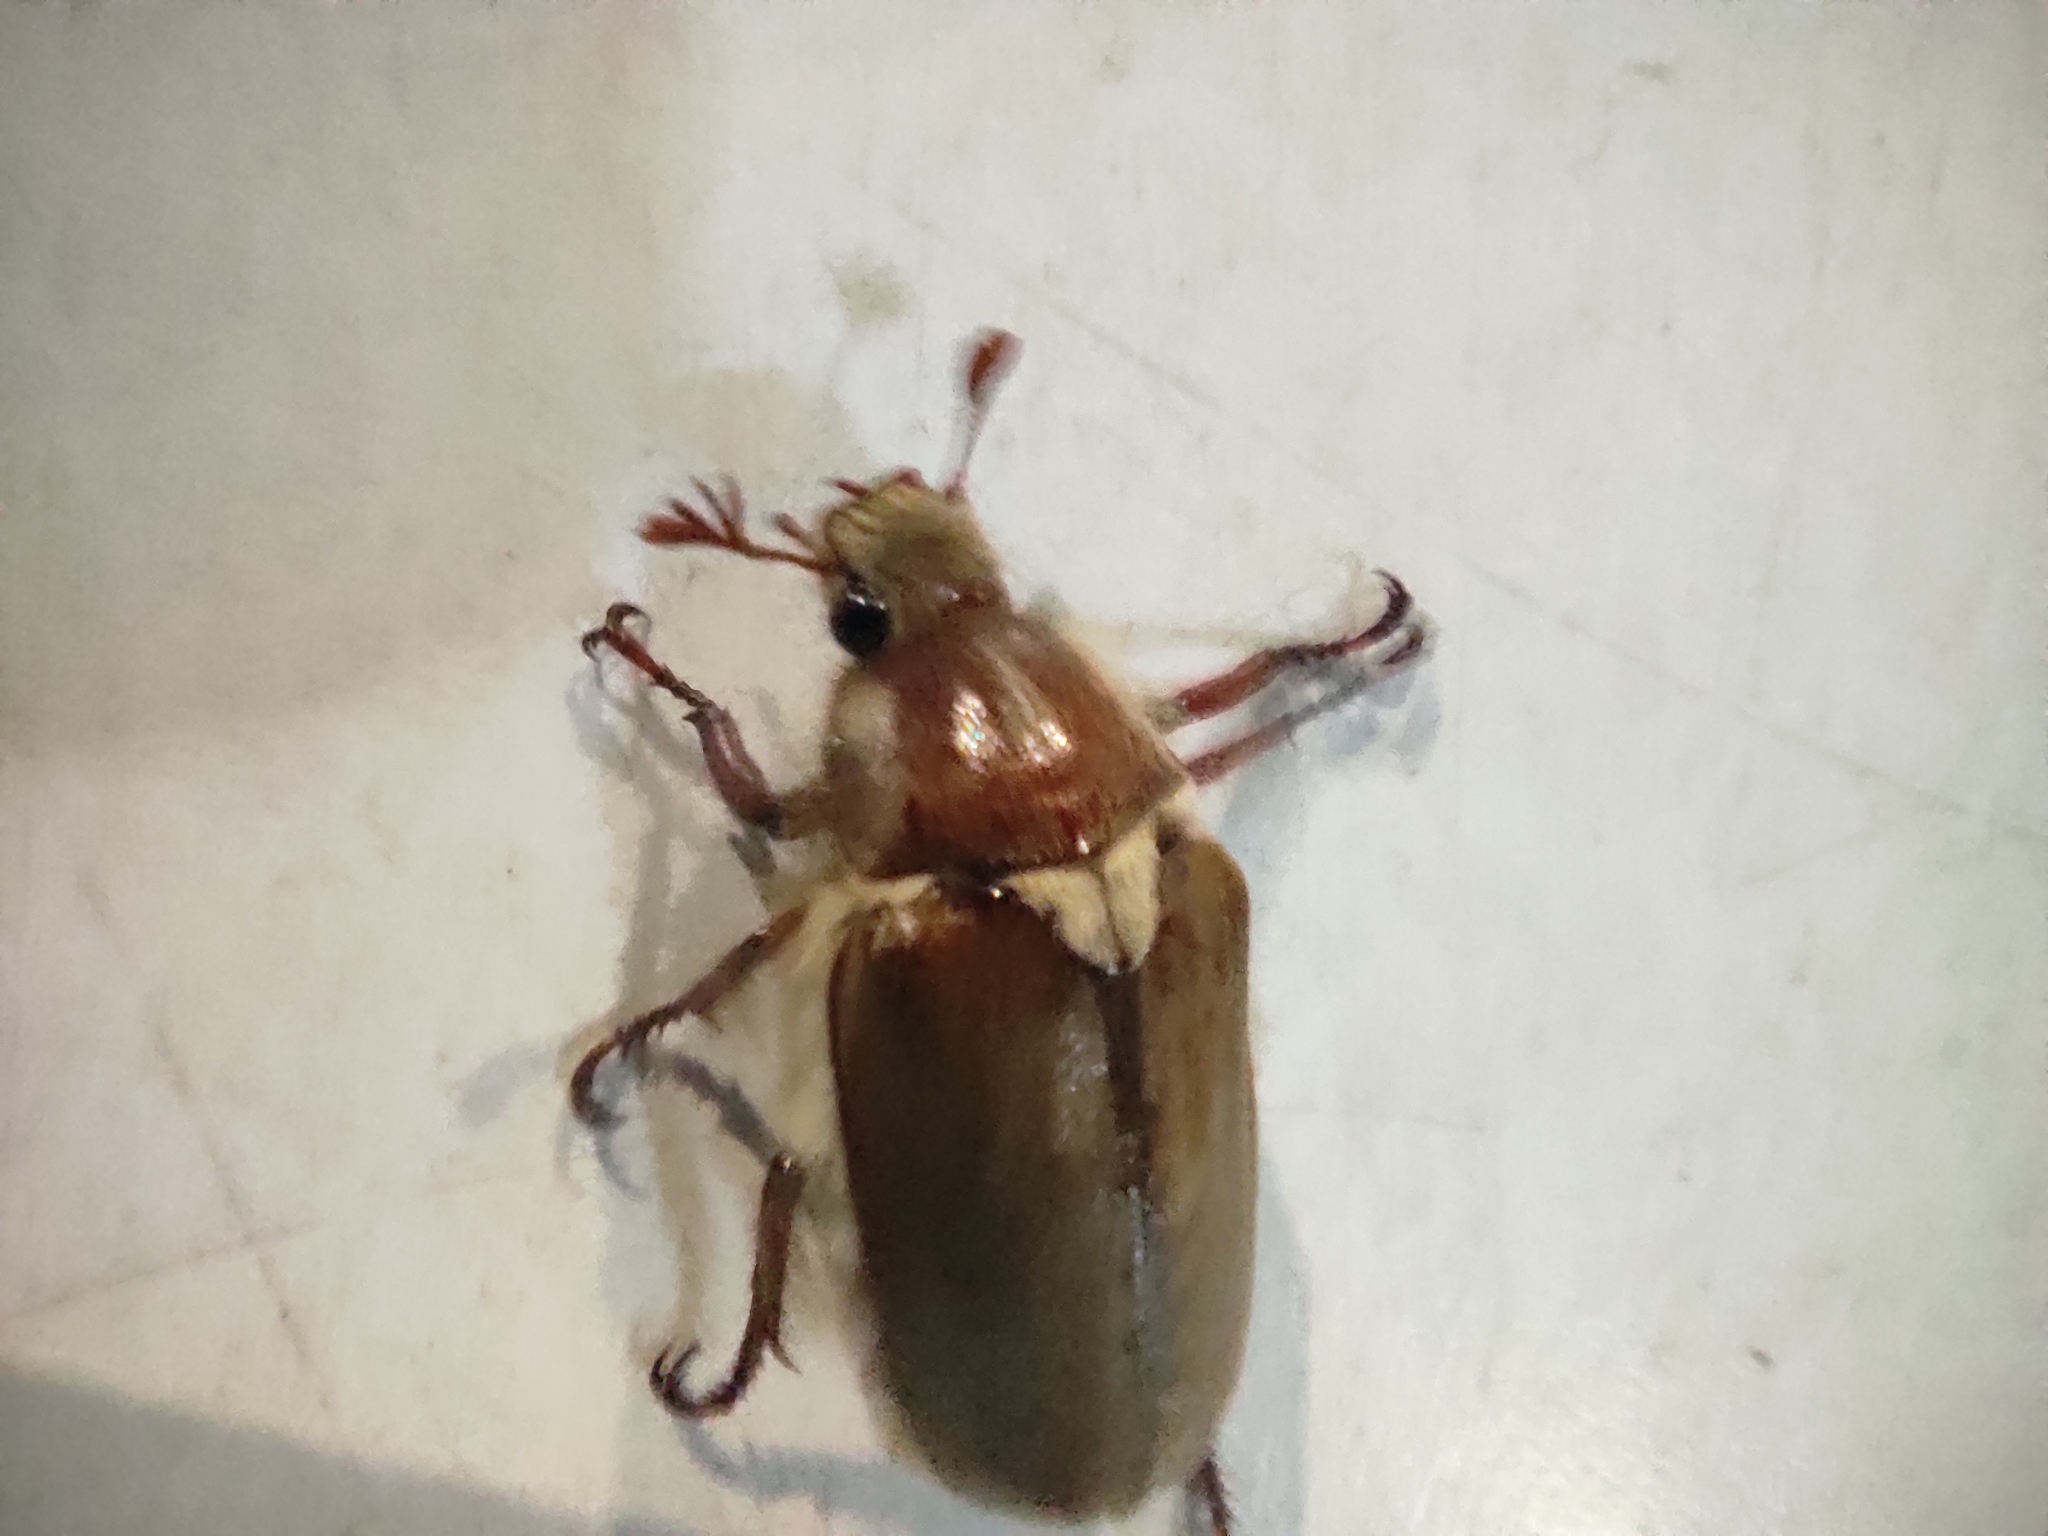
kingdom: Animalia
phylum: Arthropoda
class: Insecta
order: Coleoptera
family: Scarabaeidae
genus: Anoxia
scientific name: Anoxia villosa
